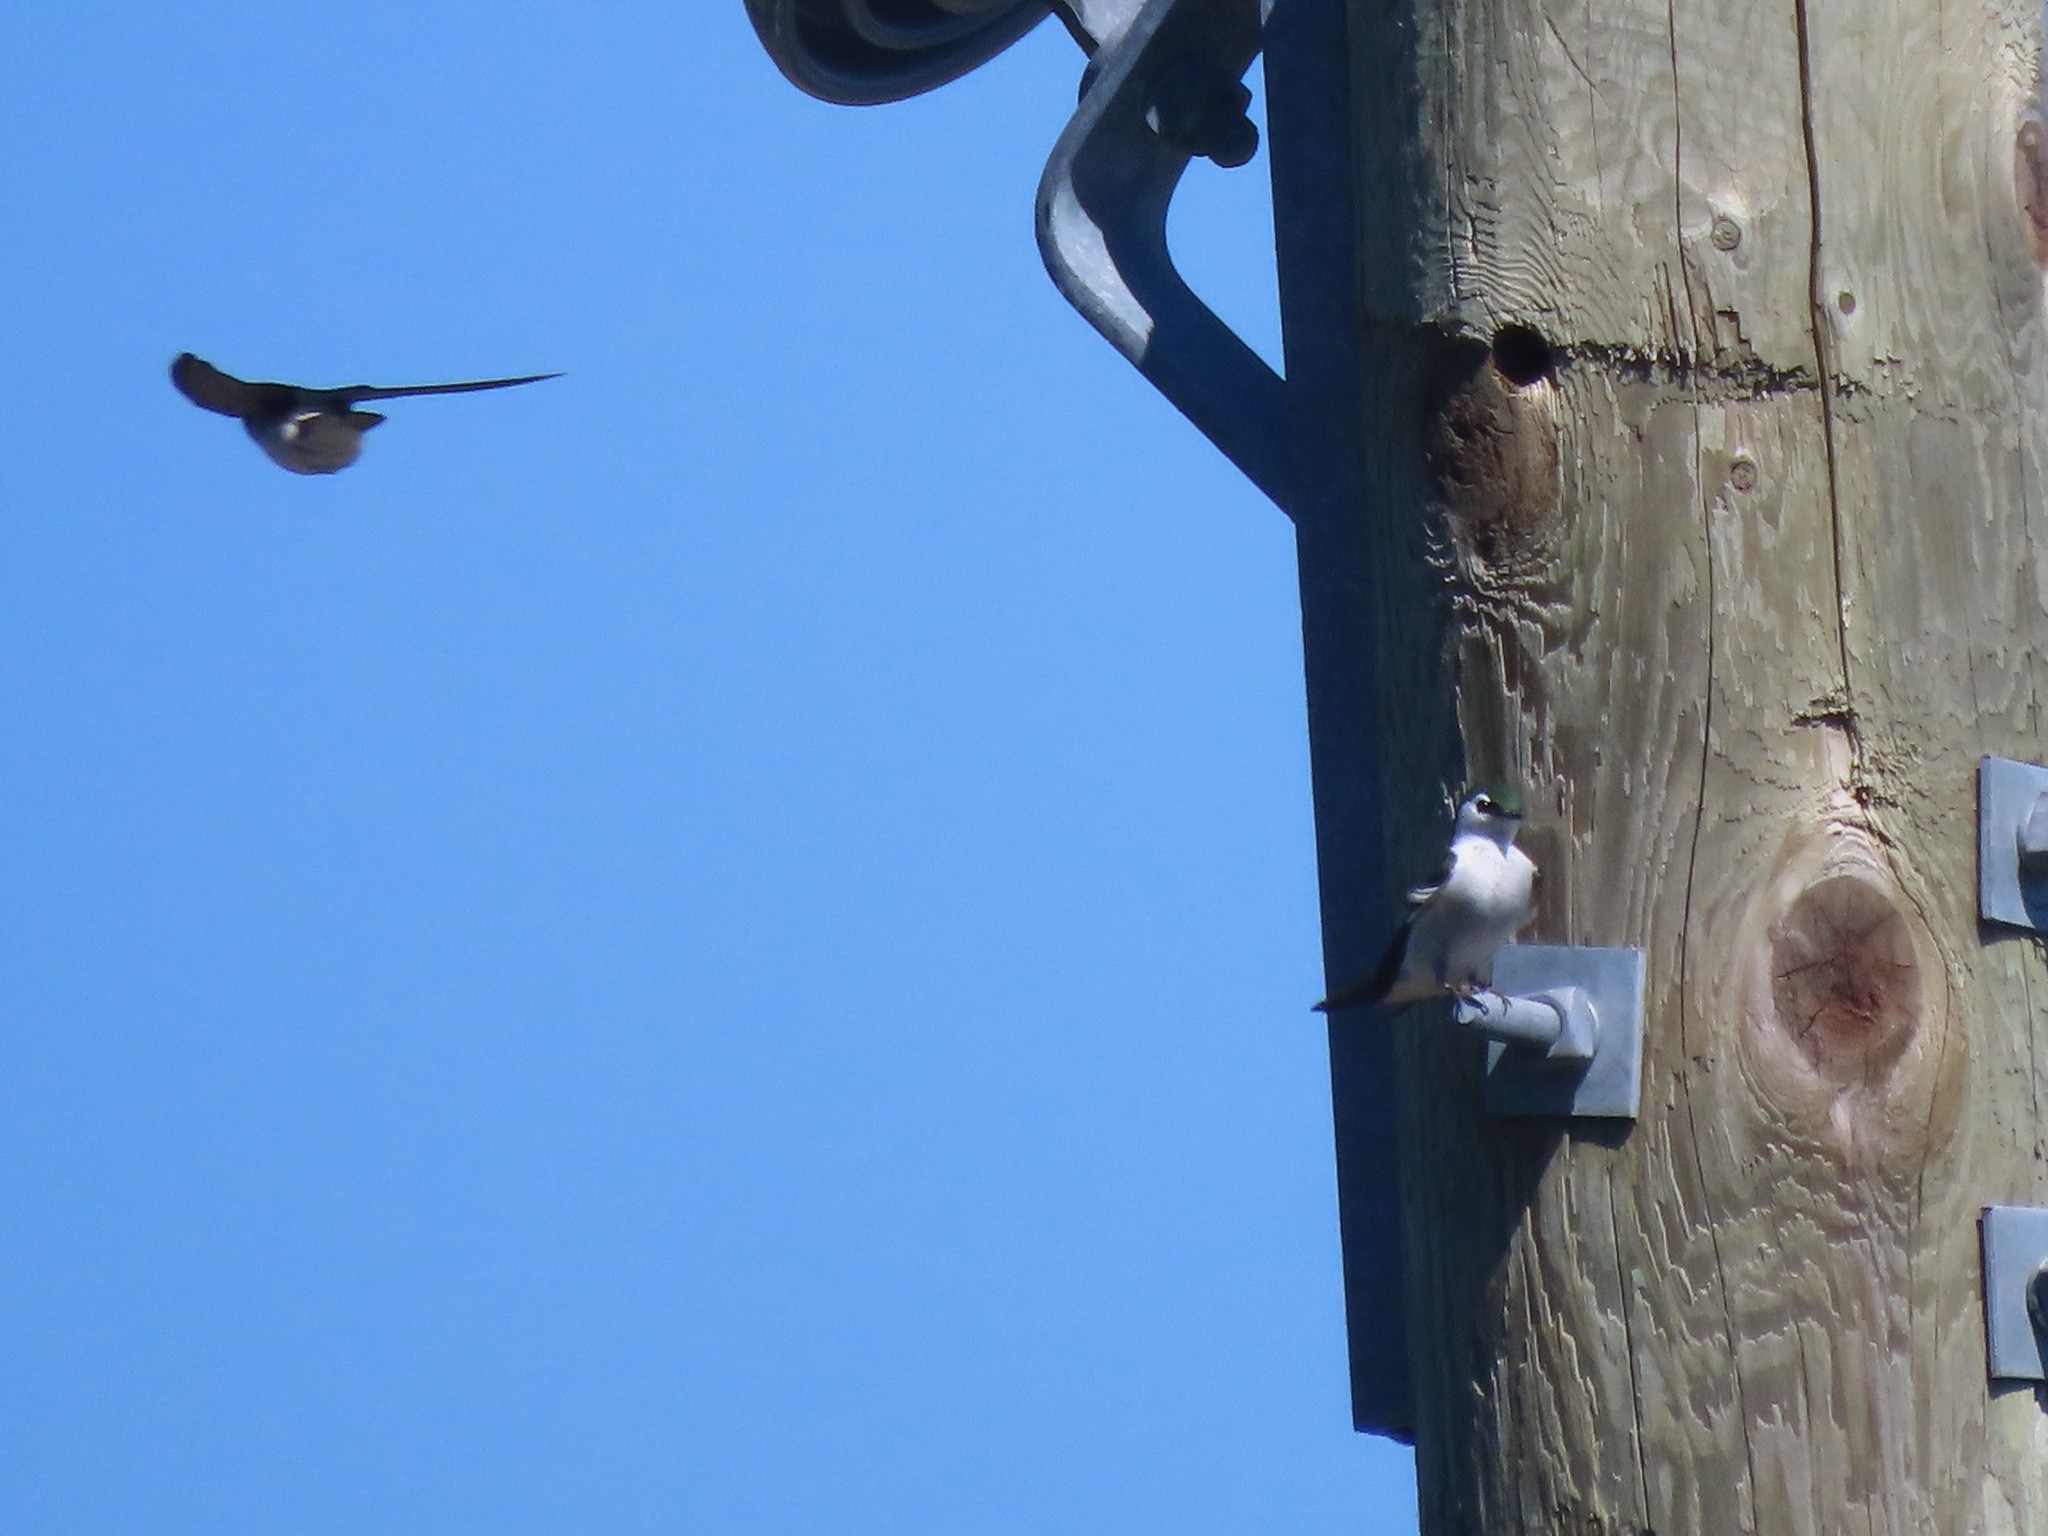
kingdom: Animalia
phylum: Chordata
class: Aves
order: Passeriformes
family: Hirundinidae
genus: Tachycineta
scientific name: Tachycineta thalassina
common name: Violet-green swallow
